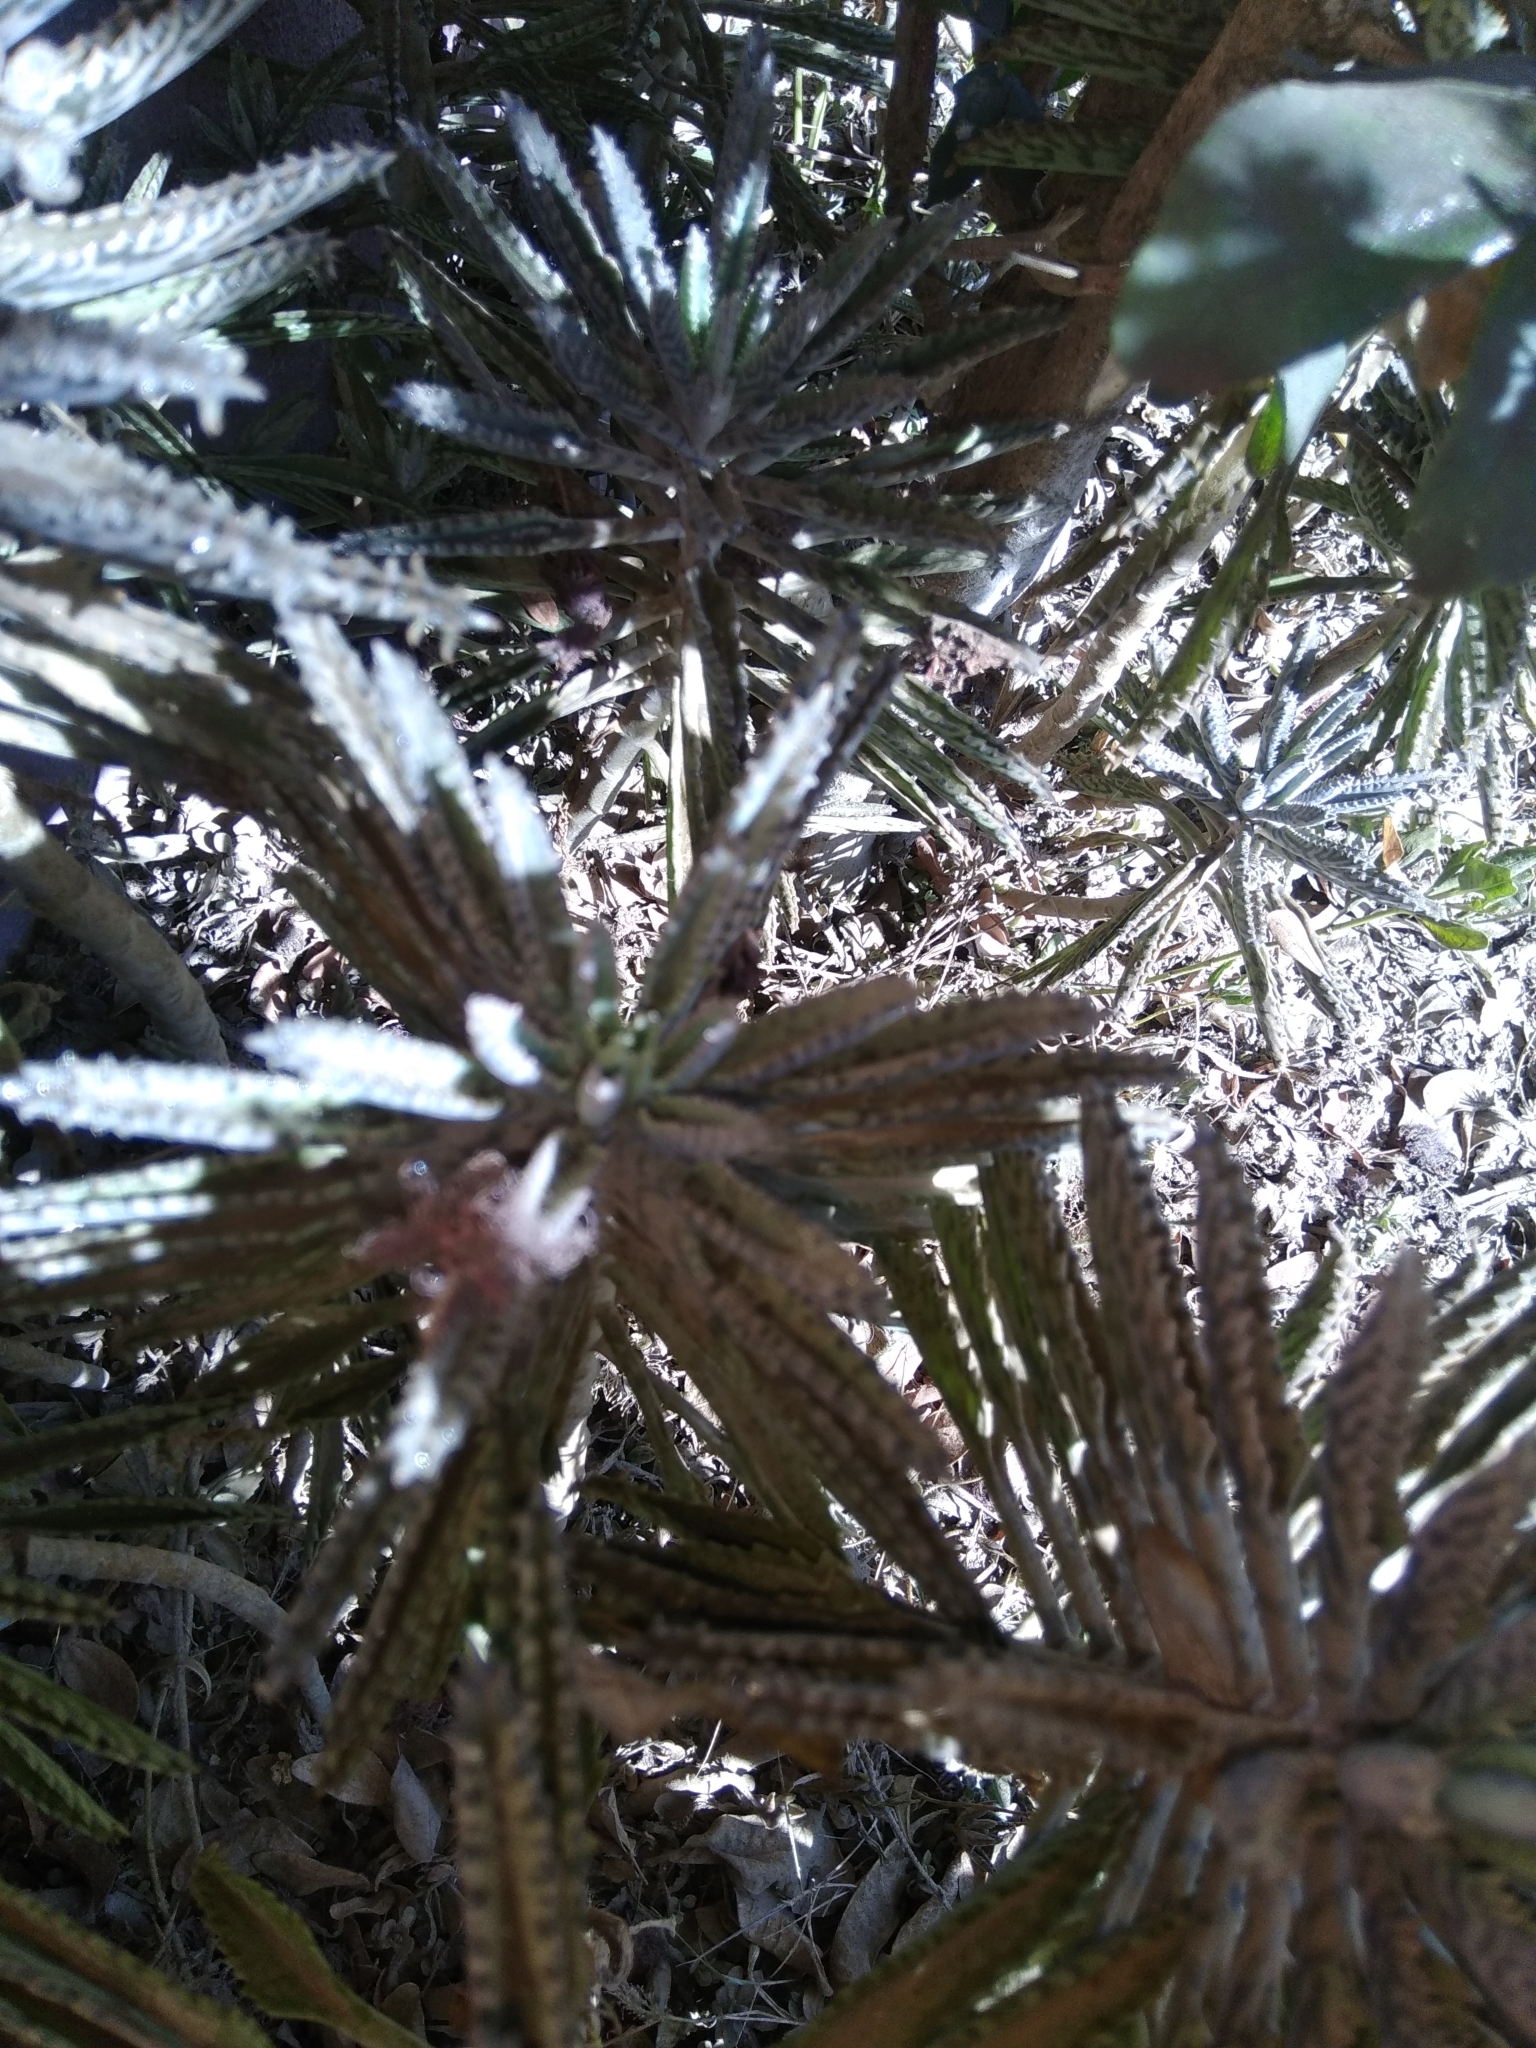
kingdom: Plantae
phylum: Tracheophyta
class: Magnoliopsida
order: Saxifragales
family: Crassulaceae
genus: Kalanchoe
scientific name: Kalanchoe houghtonii
